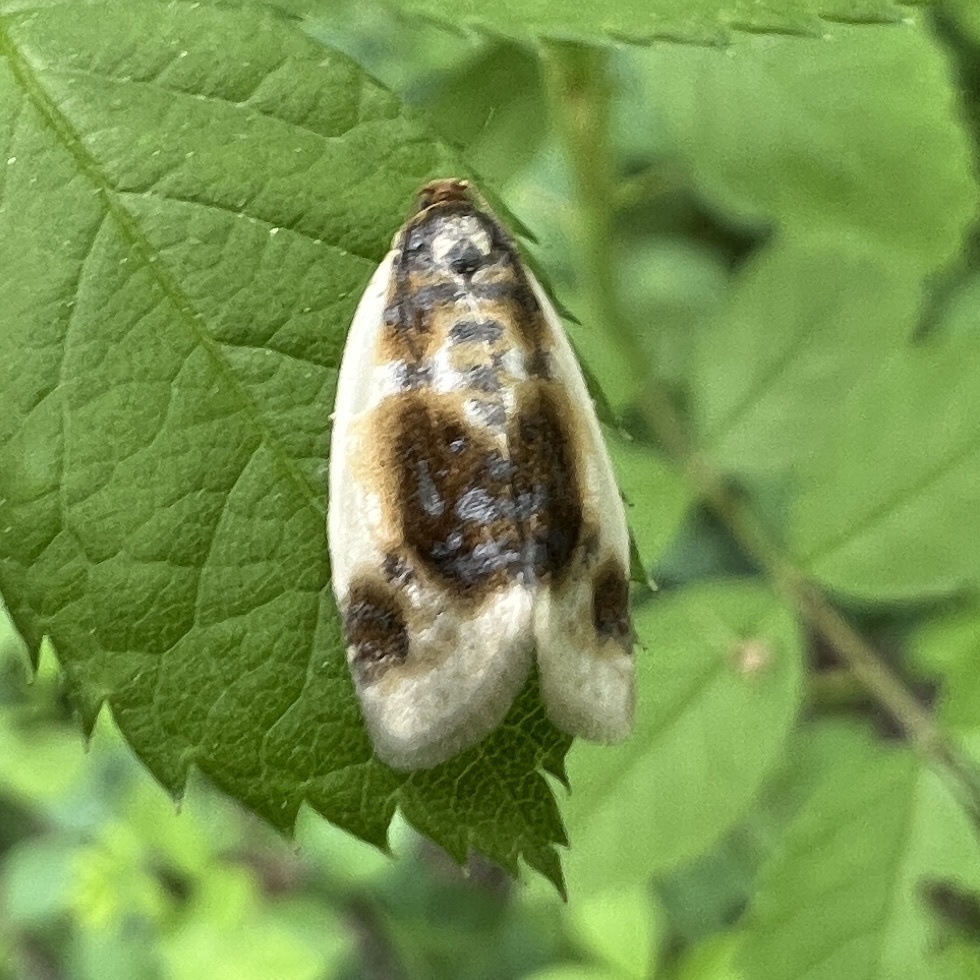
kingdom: Animalia
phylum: Arthropoda
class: Insecta
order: Lepidoptera
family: Tortricidae
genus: Clepsis
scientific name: Clepsis melaleucanus
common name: American apple tortrix
